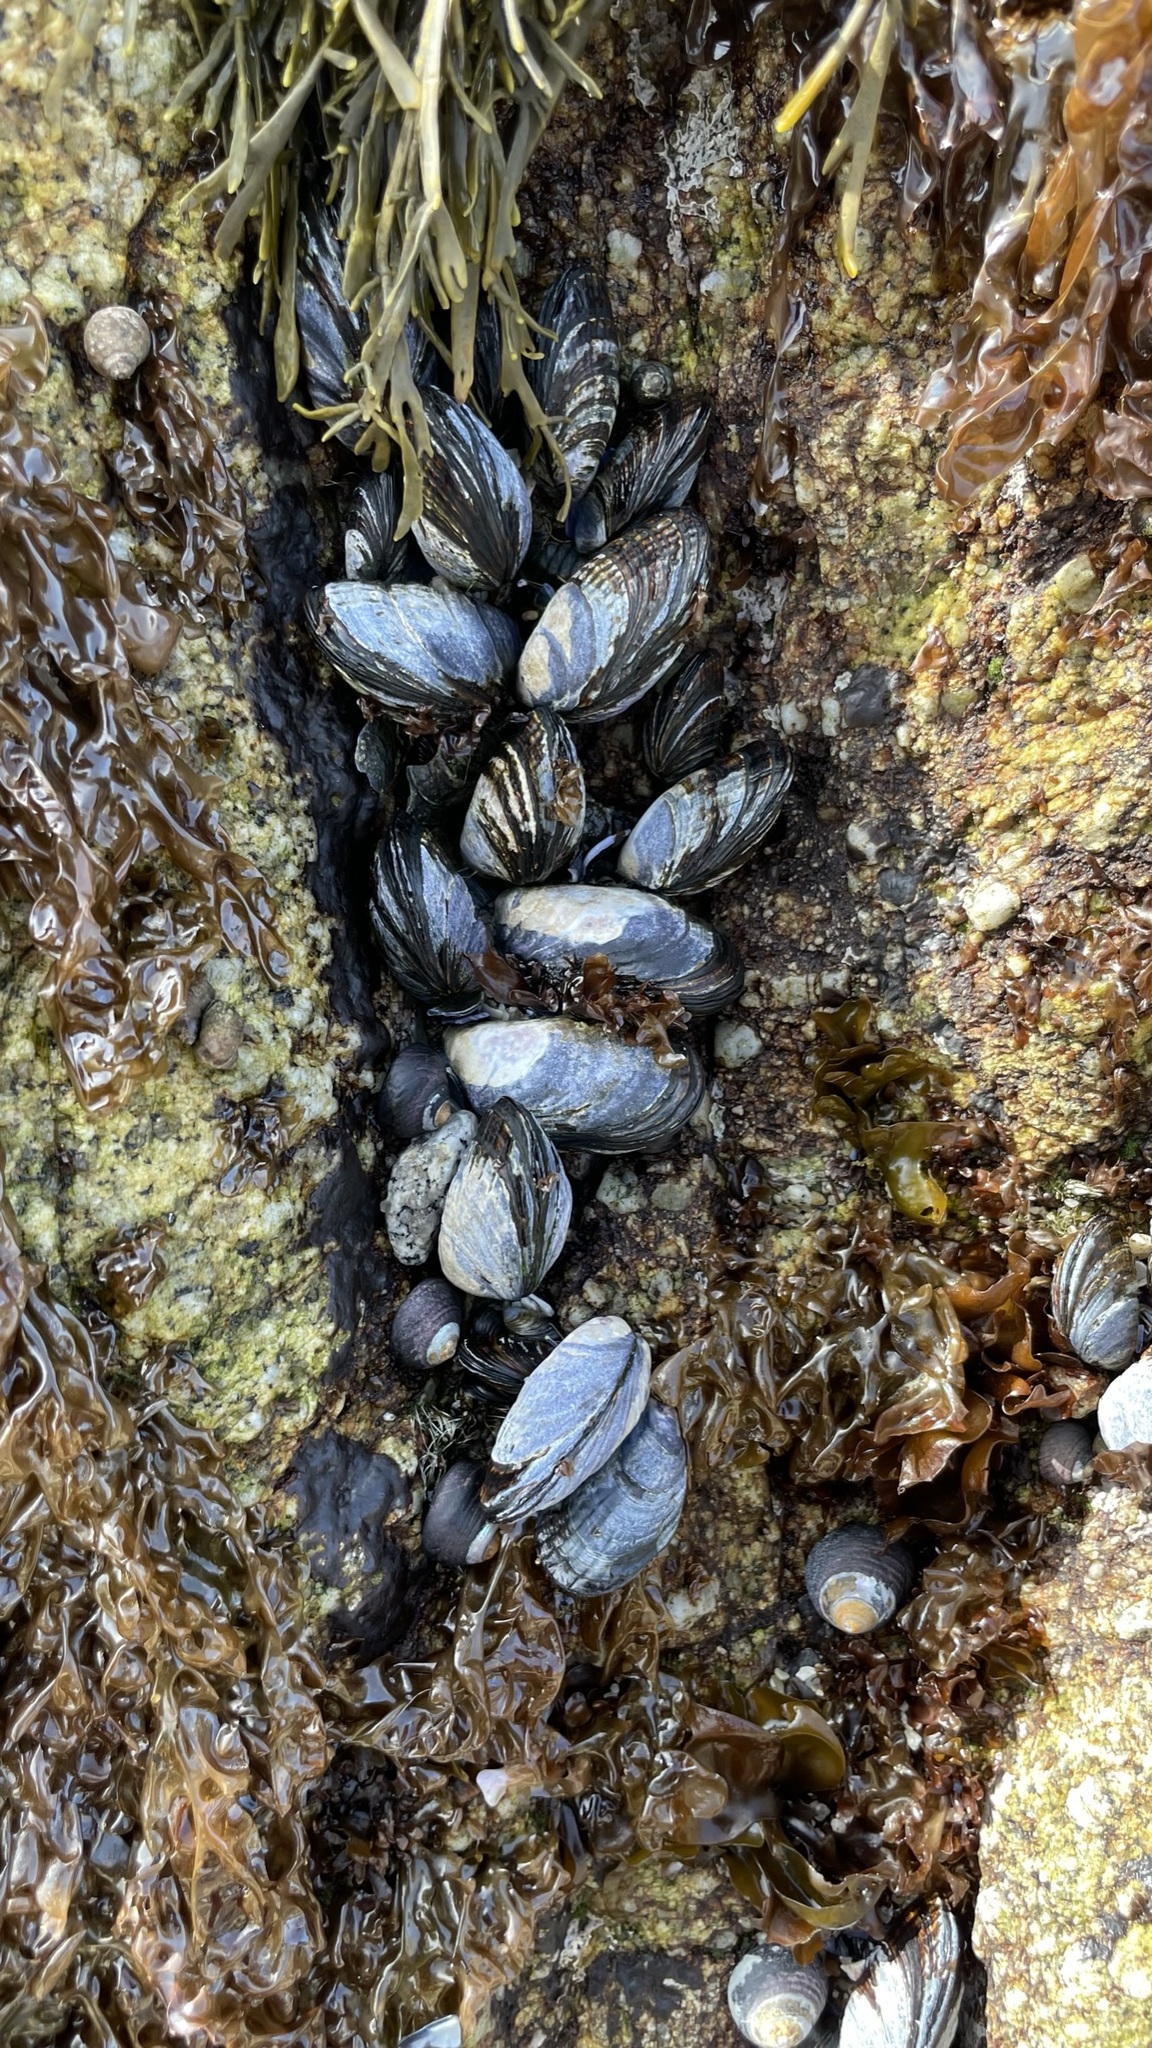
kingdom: Animalia
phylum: Mollusca
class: Bivalvia
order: Mytilida
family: Mytilidae
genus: Mytilus
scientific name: Mytilus californianus
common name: California mussel
